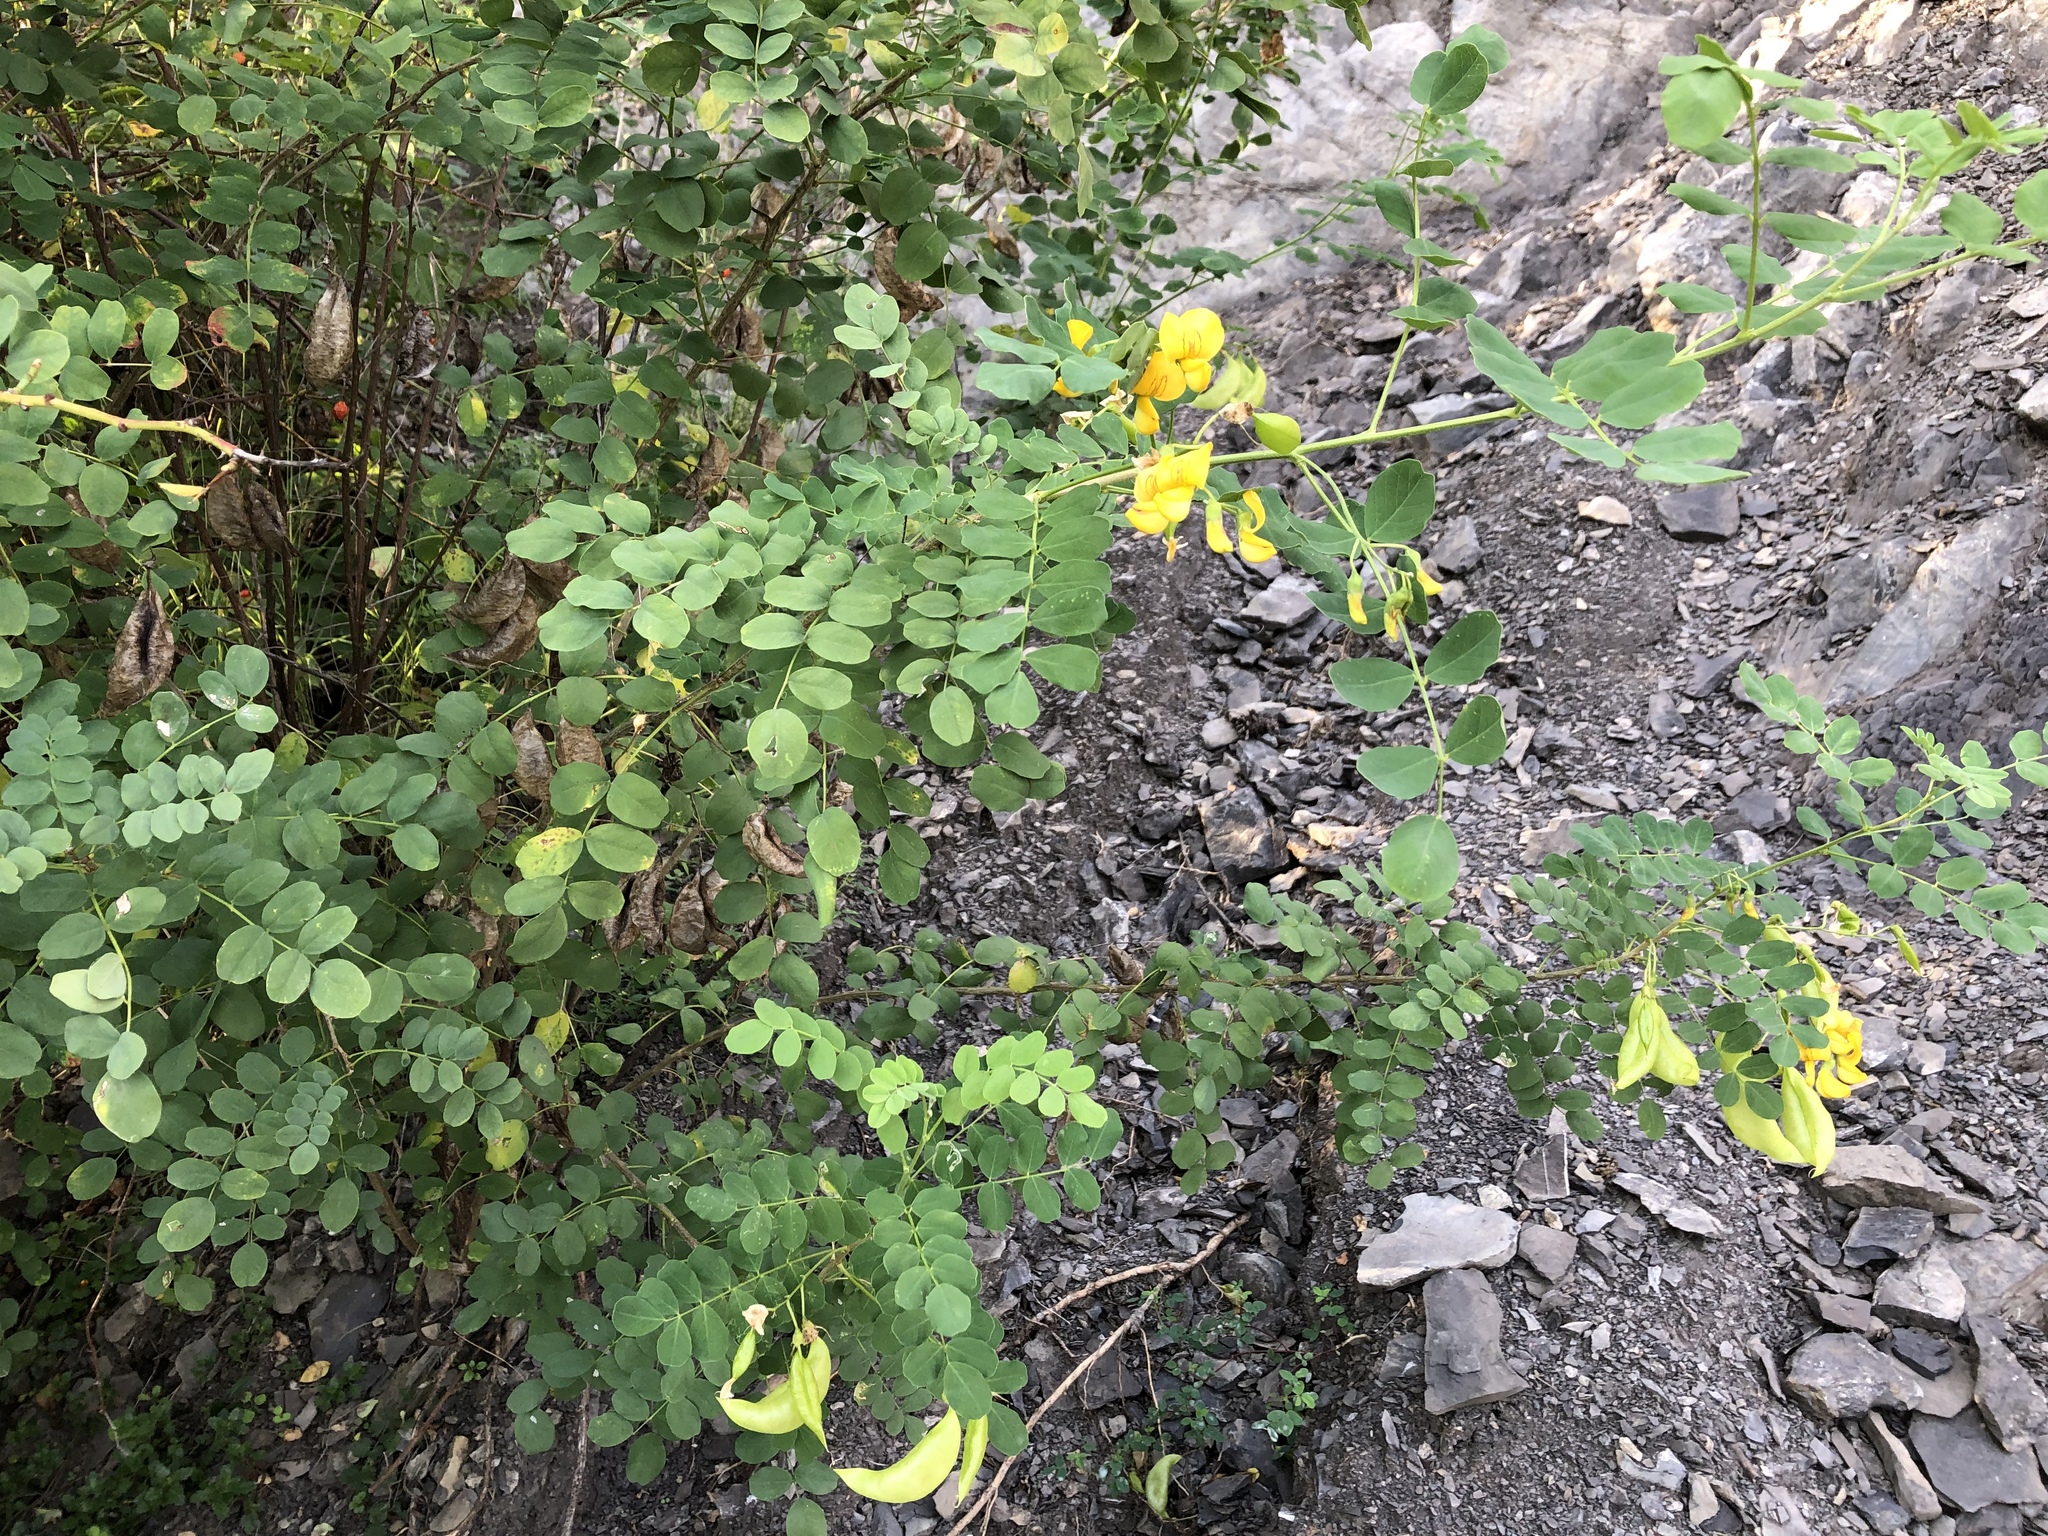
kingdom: Plantae
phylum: Tracheophyta
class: Magnoliopsida
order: Fabales
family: Fabaceae
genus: Colutea
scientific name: Colutea arborescens
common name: Bladder-senna
